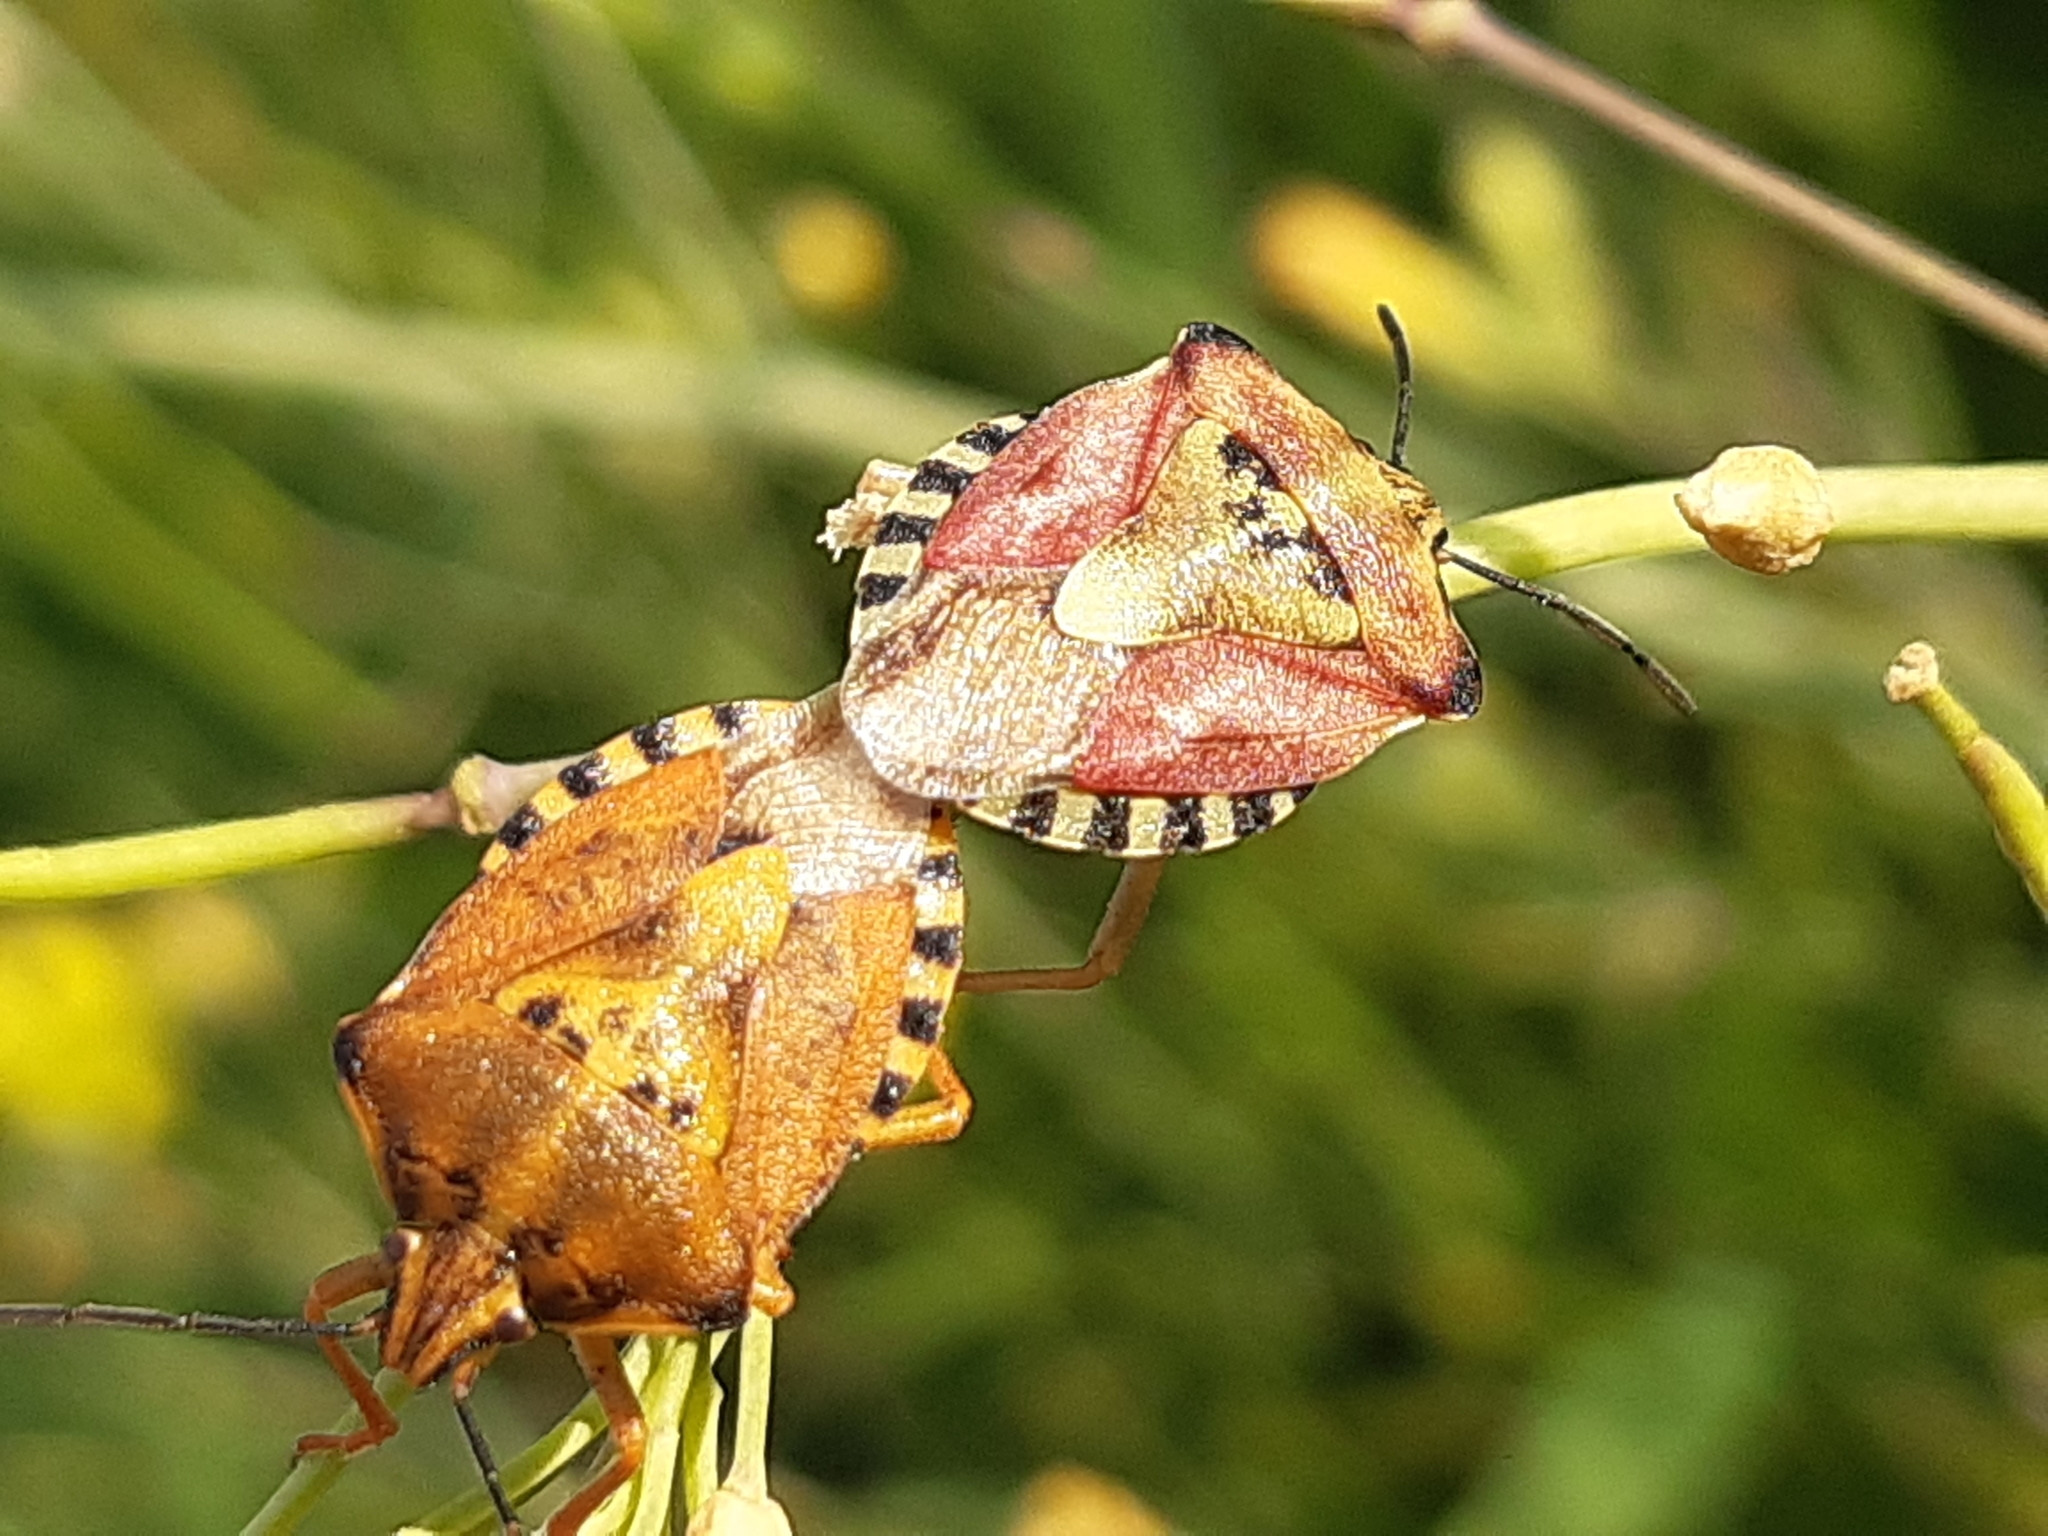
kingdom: Animalia
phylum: Arthropoda
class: Insecta
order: Hemiptera
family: Pentatomidae
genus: Carpocoris
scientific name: Carpocoris purpureipennis
